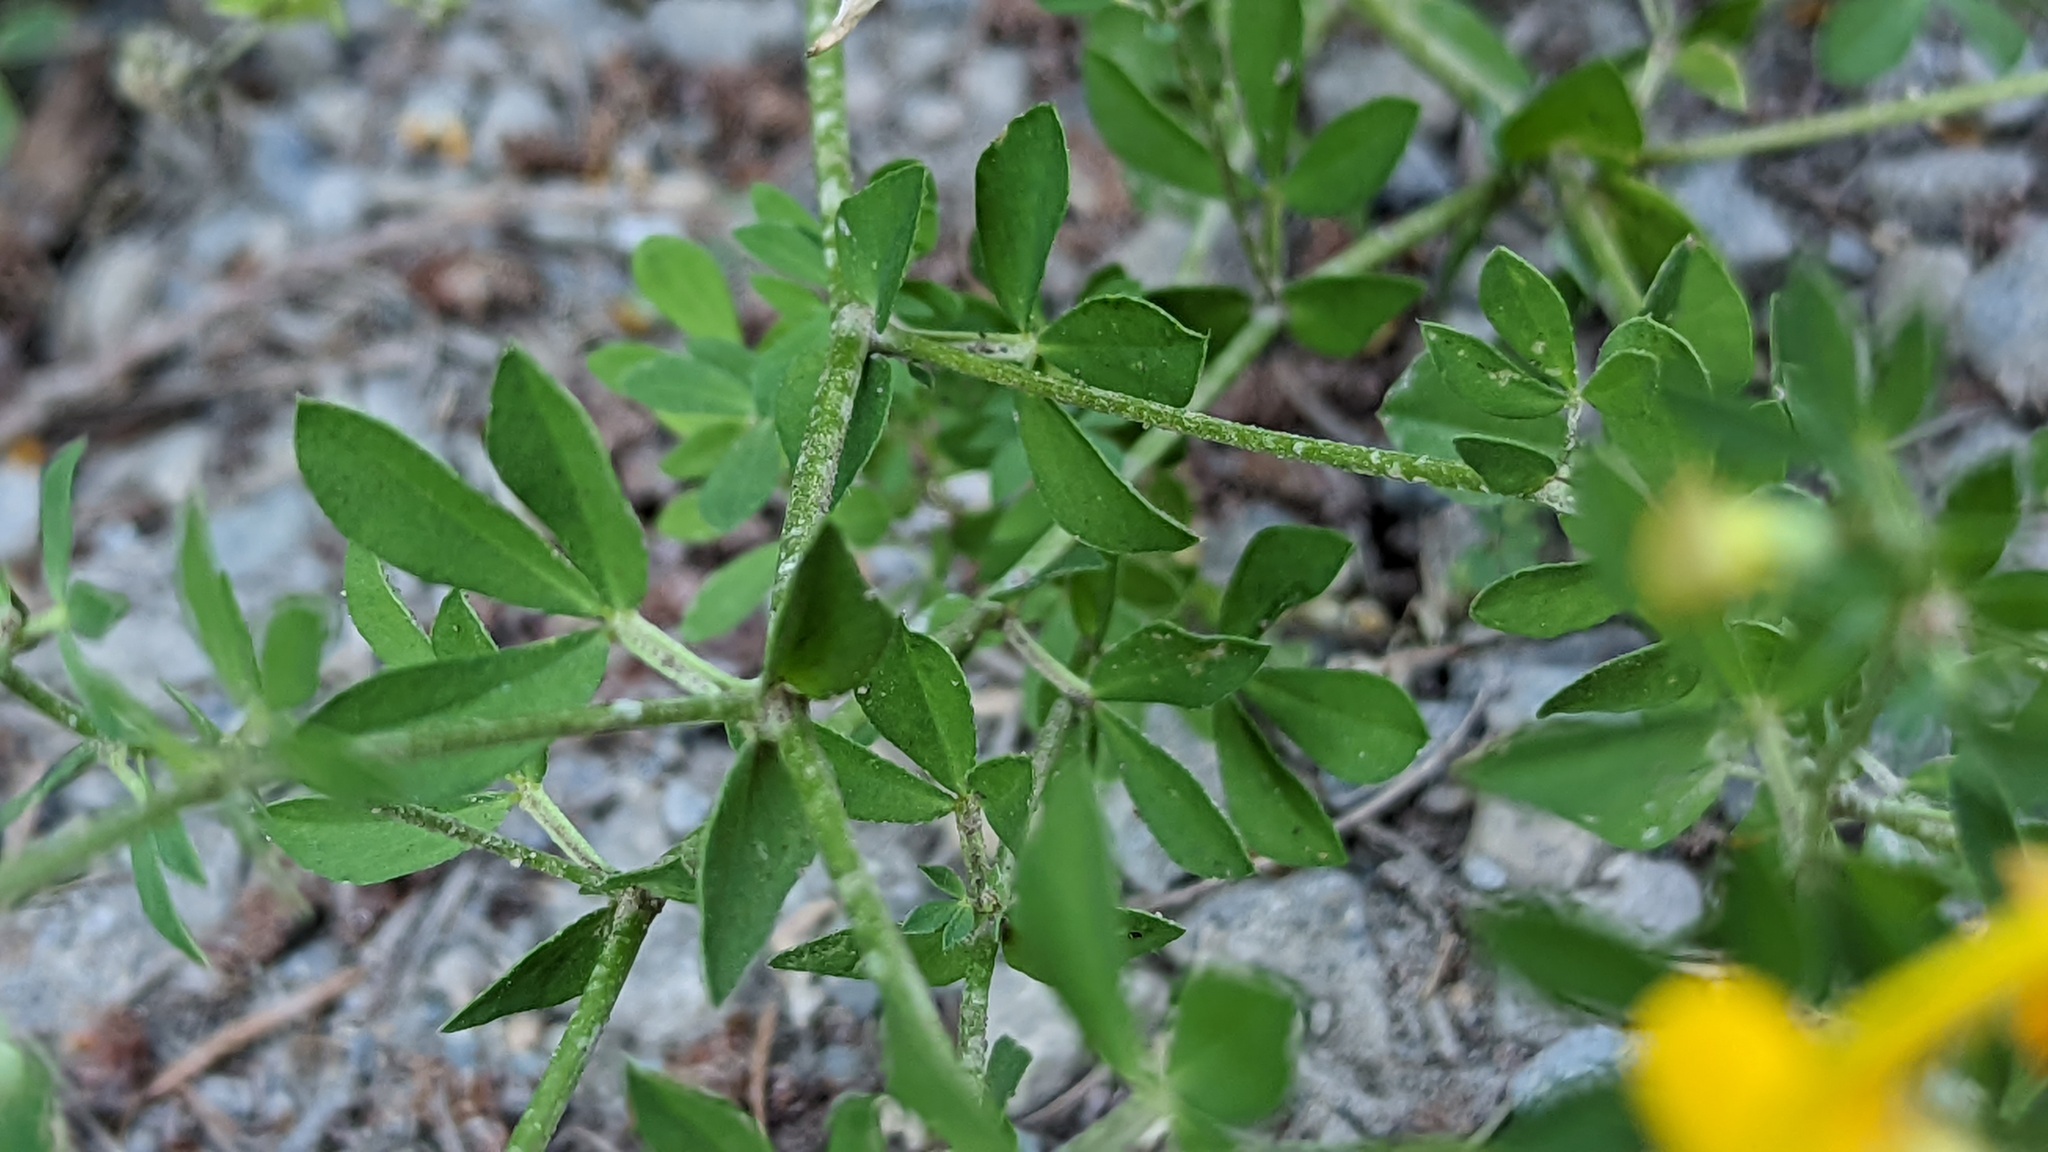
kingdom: Plantae
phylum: Tracheophyta
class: Magnoliopsida
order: Fabales
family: Fabaceae
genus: Lotus
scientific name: Lotus corniculatus
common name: Common bird's-foot-trefoil
